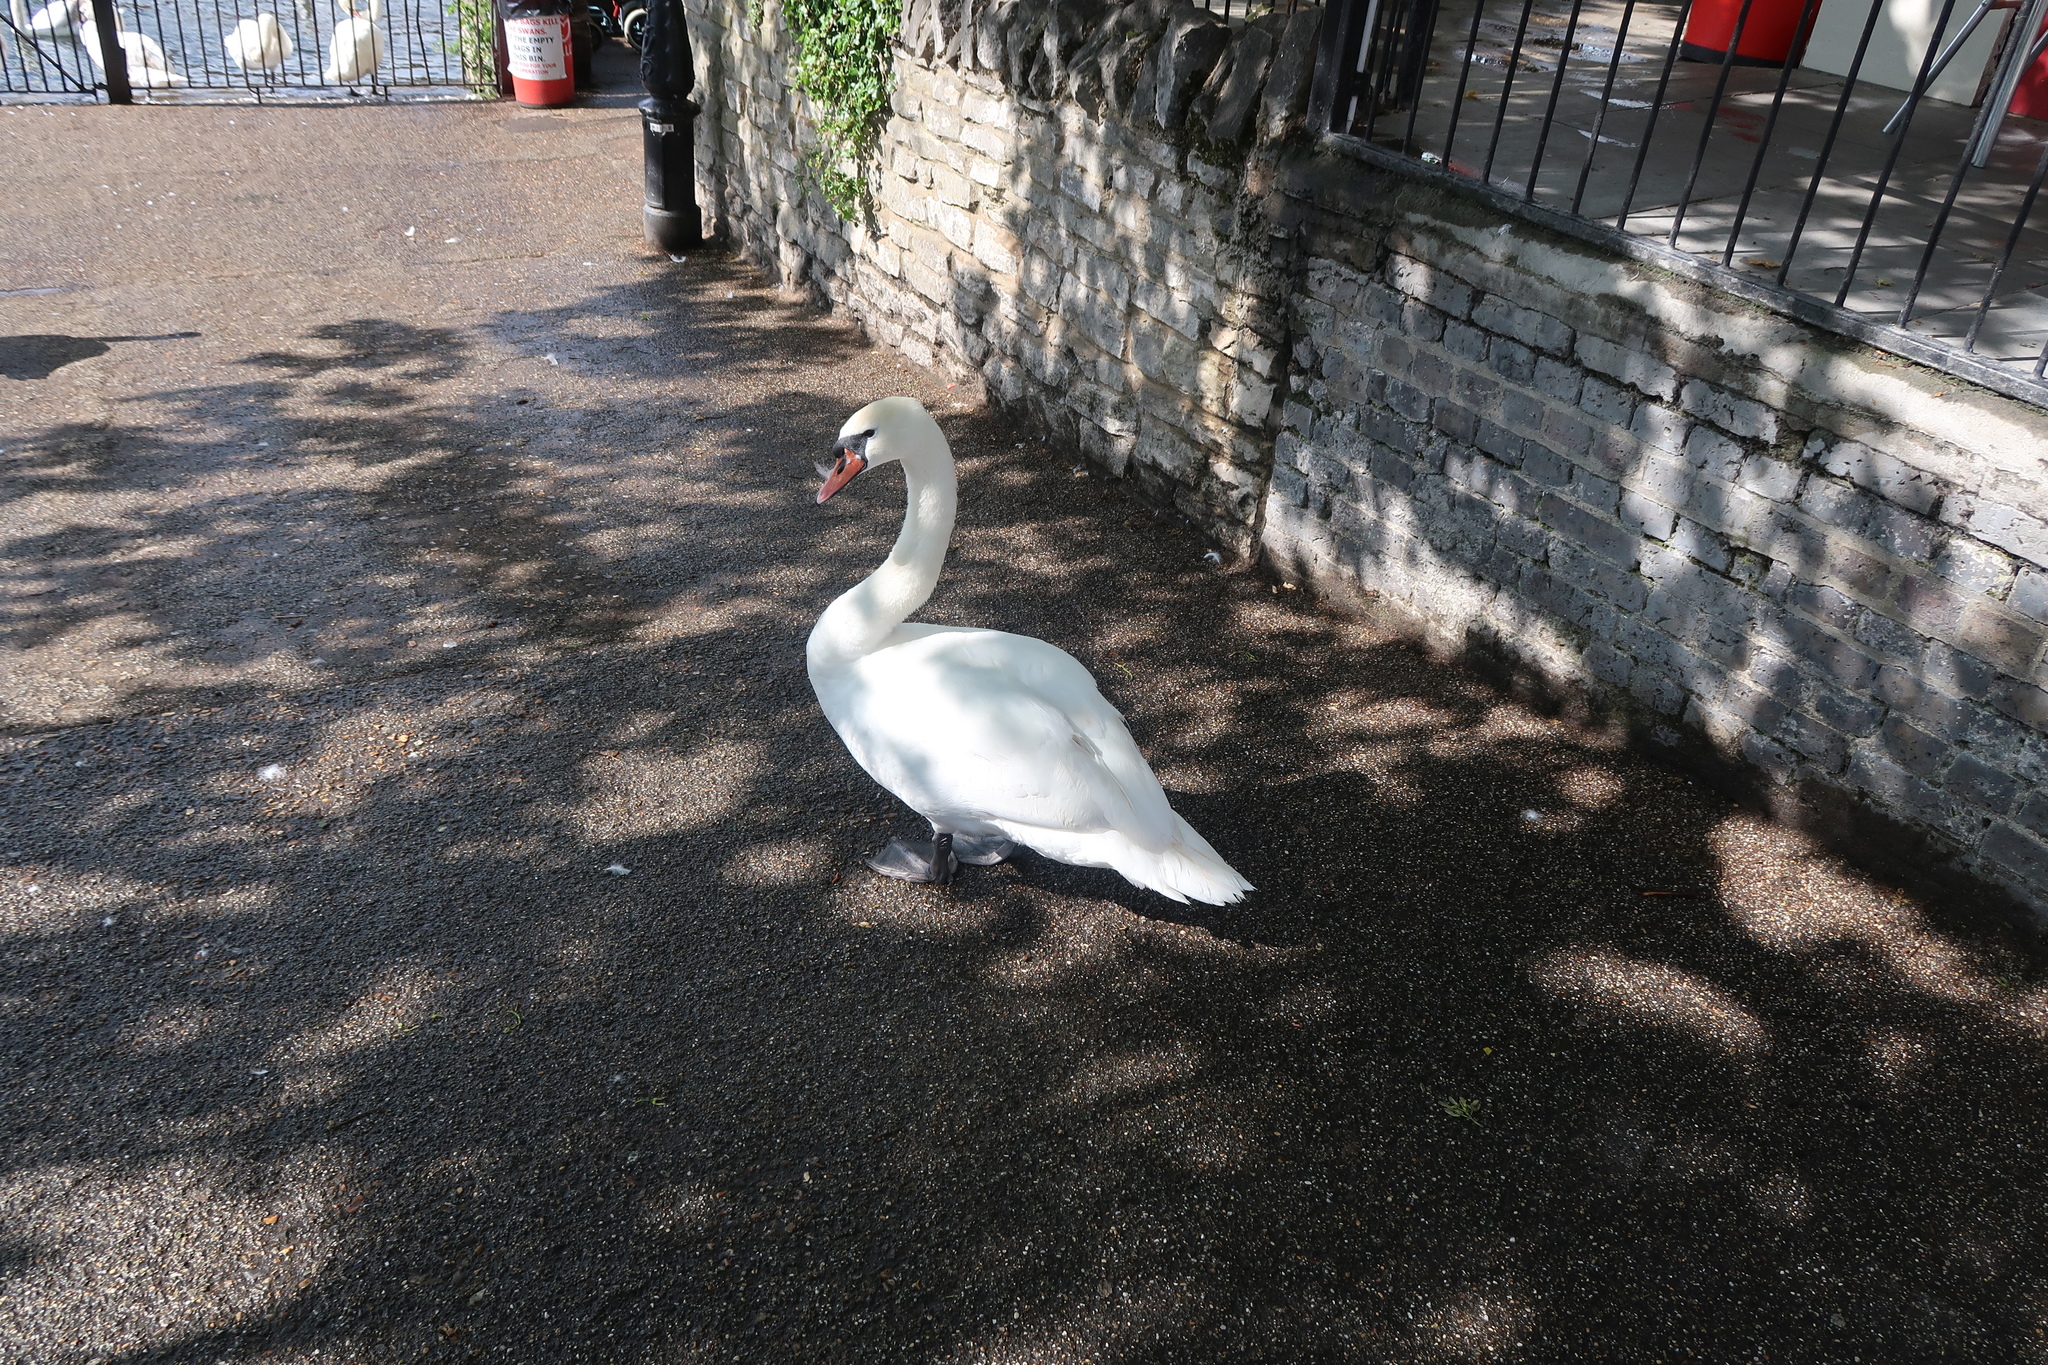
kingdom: Animalia
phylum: Chordata
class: Aves
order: Anseriformes
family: Anatidae
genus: Cygnus
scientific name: Cygnus olor
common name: Mute swan
